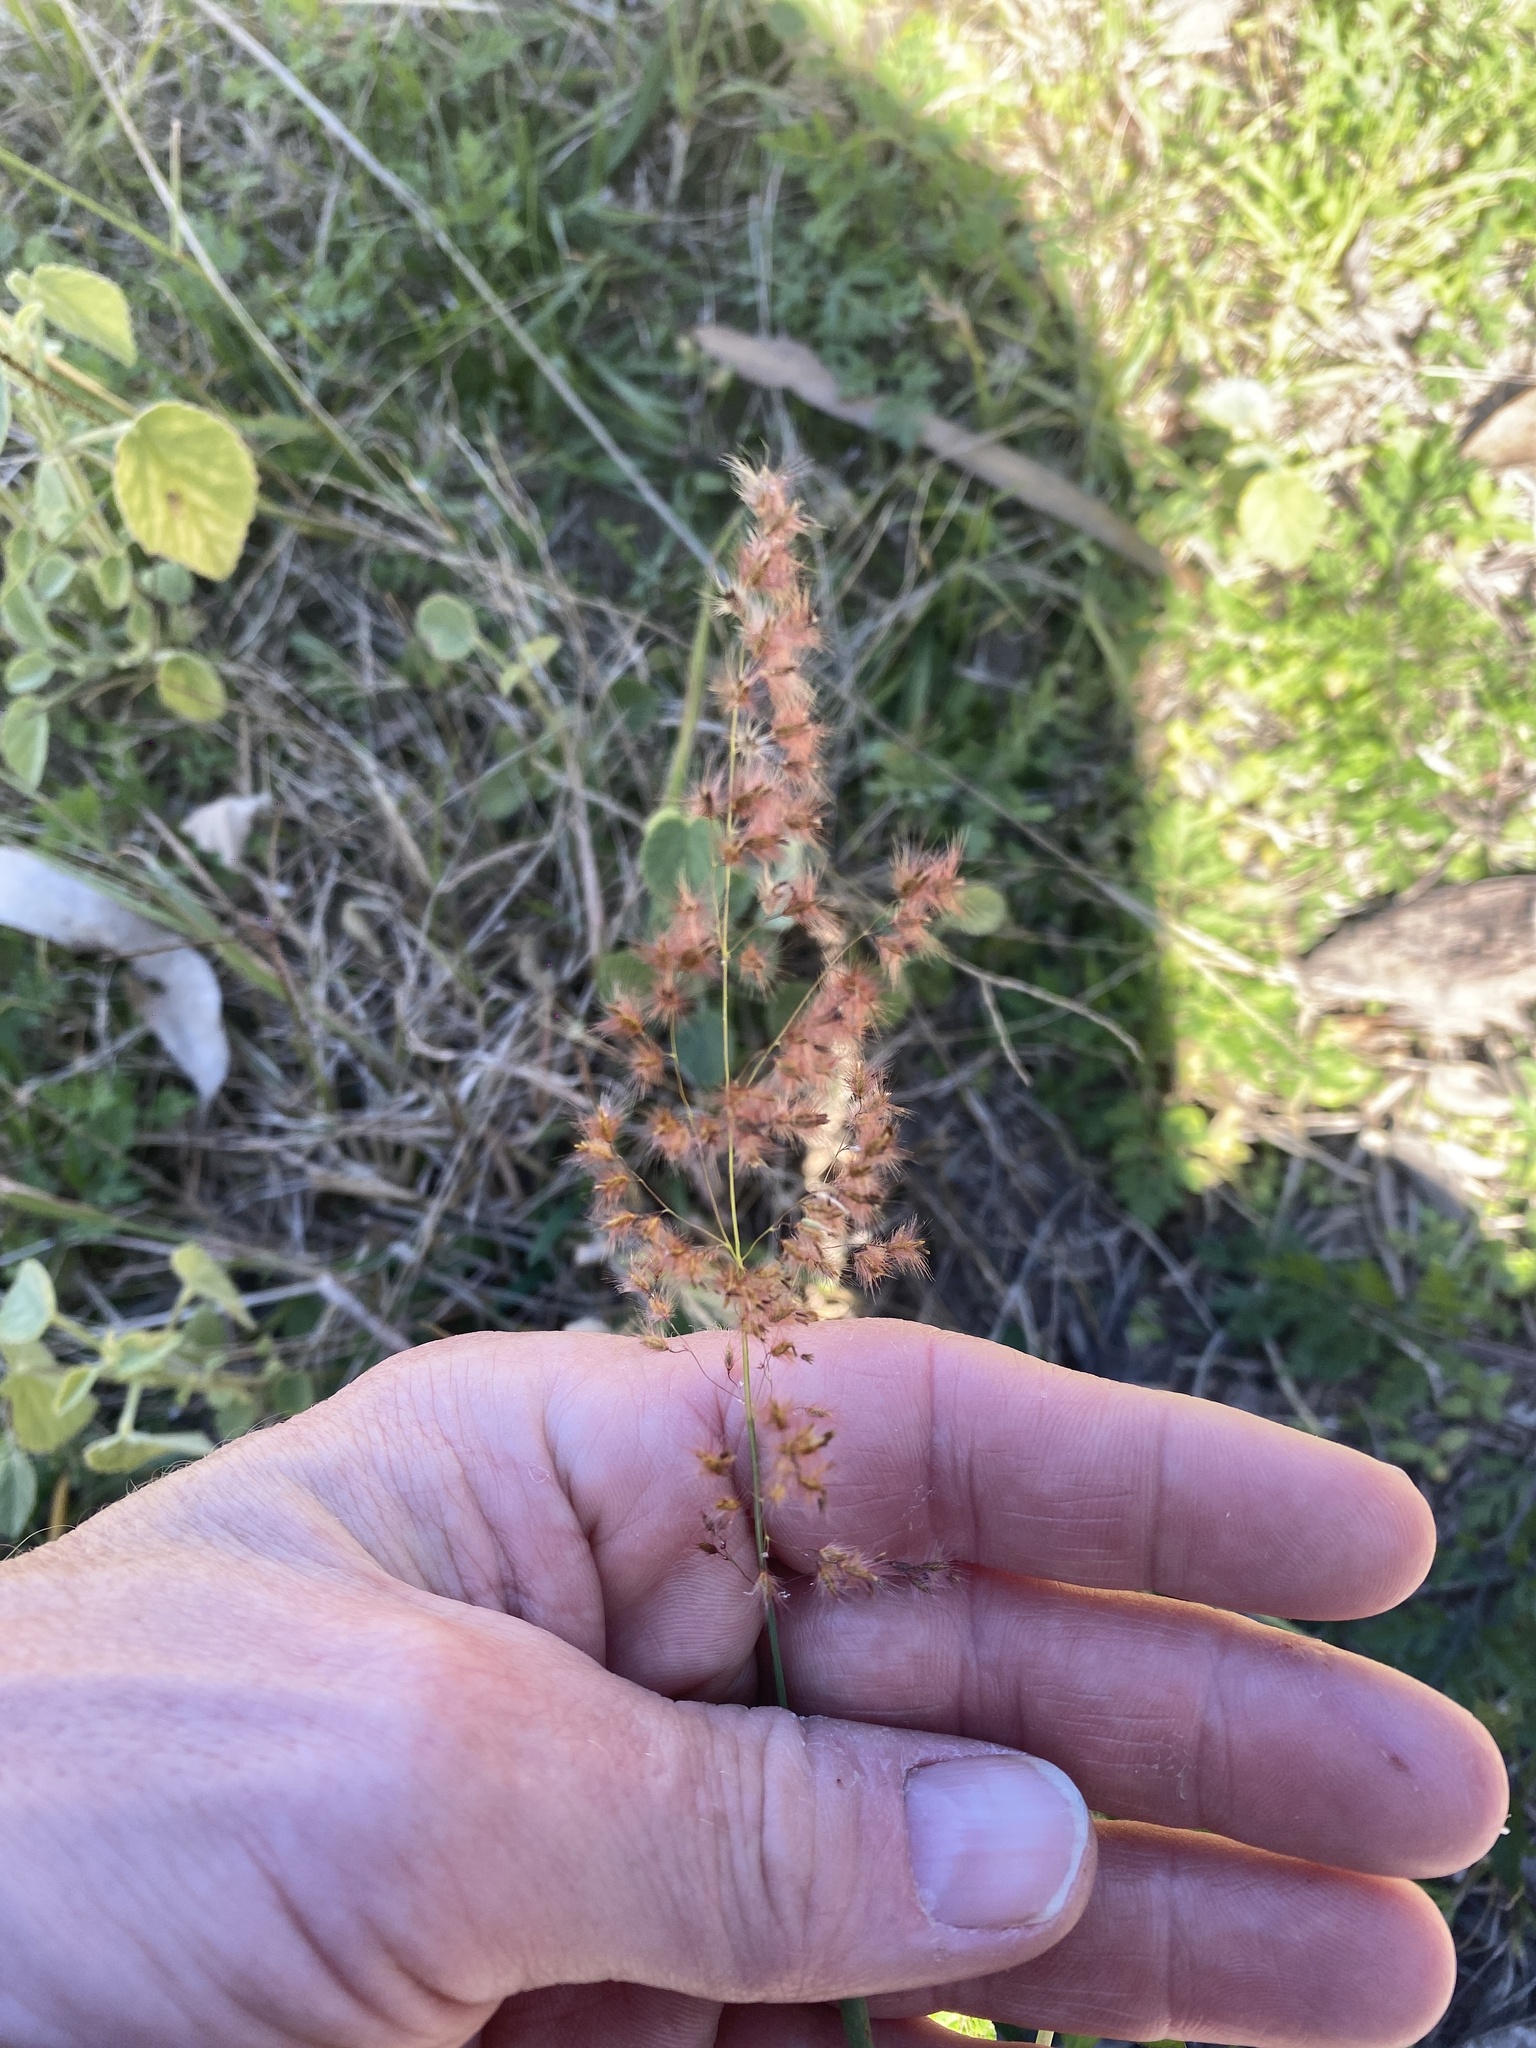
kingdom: Plantae
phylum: Tracheophyta
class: Liliopsida
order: Poales
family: Poaceae
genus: Melinis
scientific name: Melinis repens
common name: Rose natal grass
